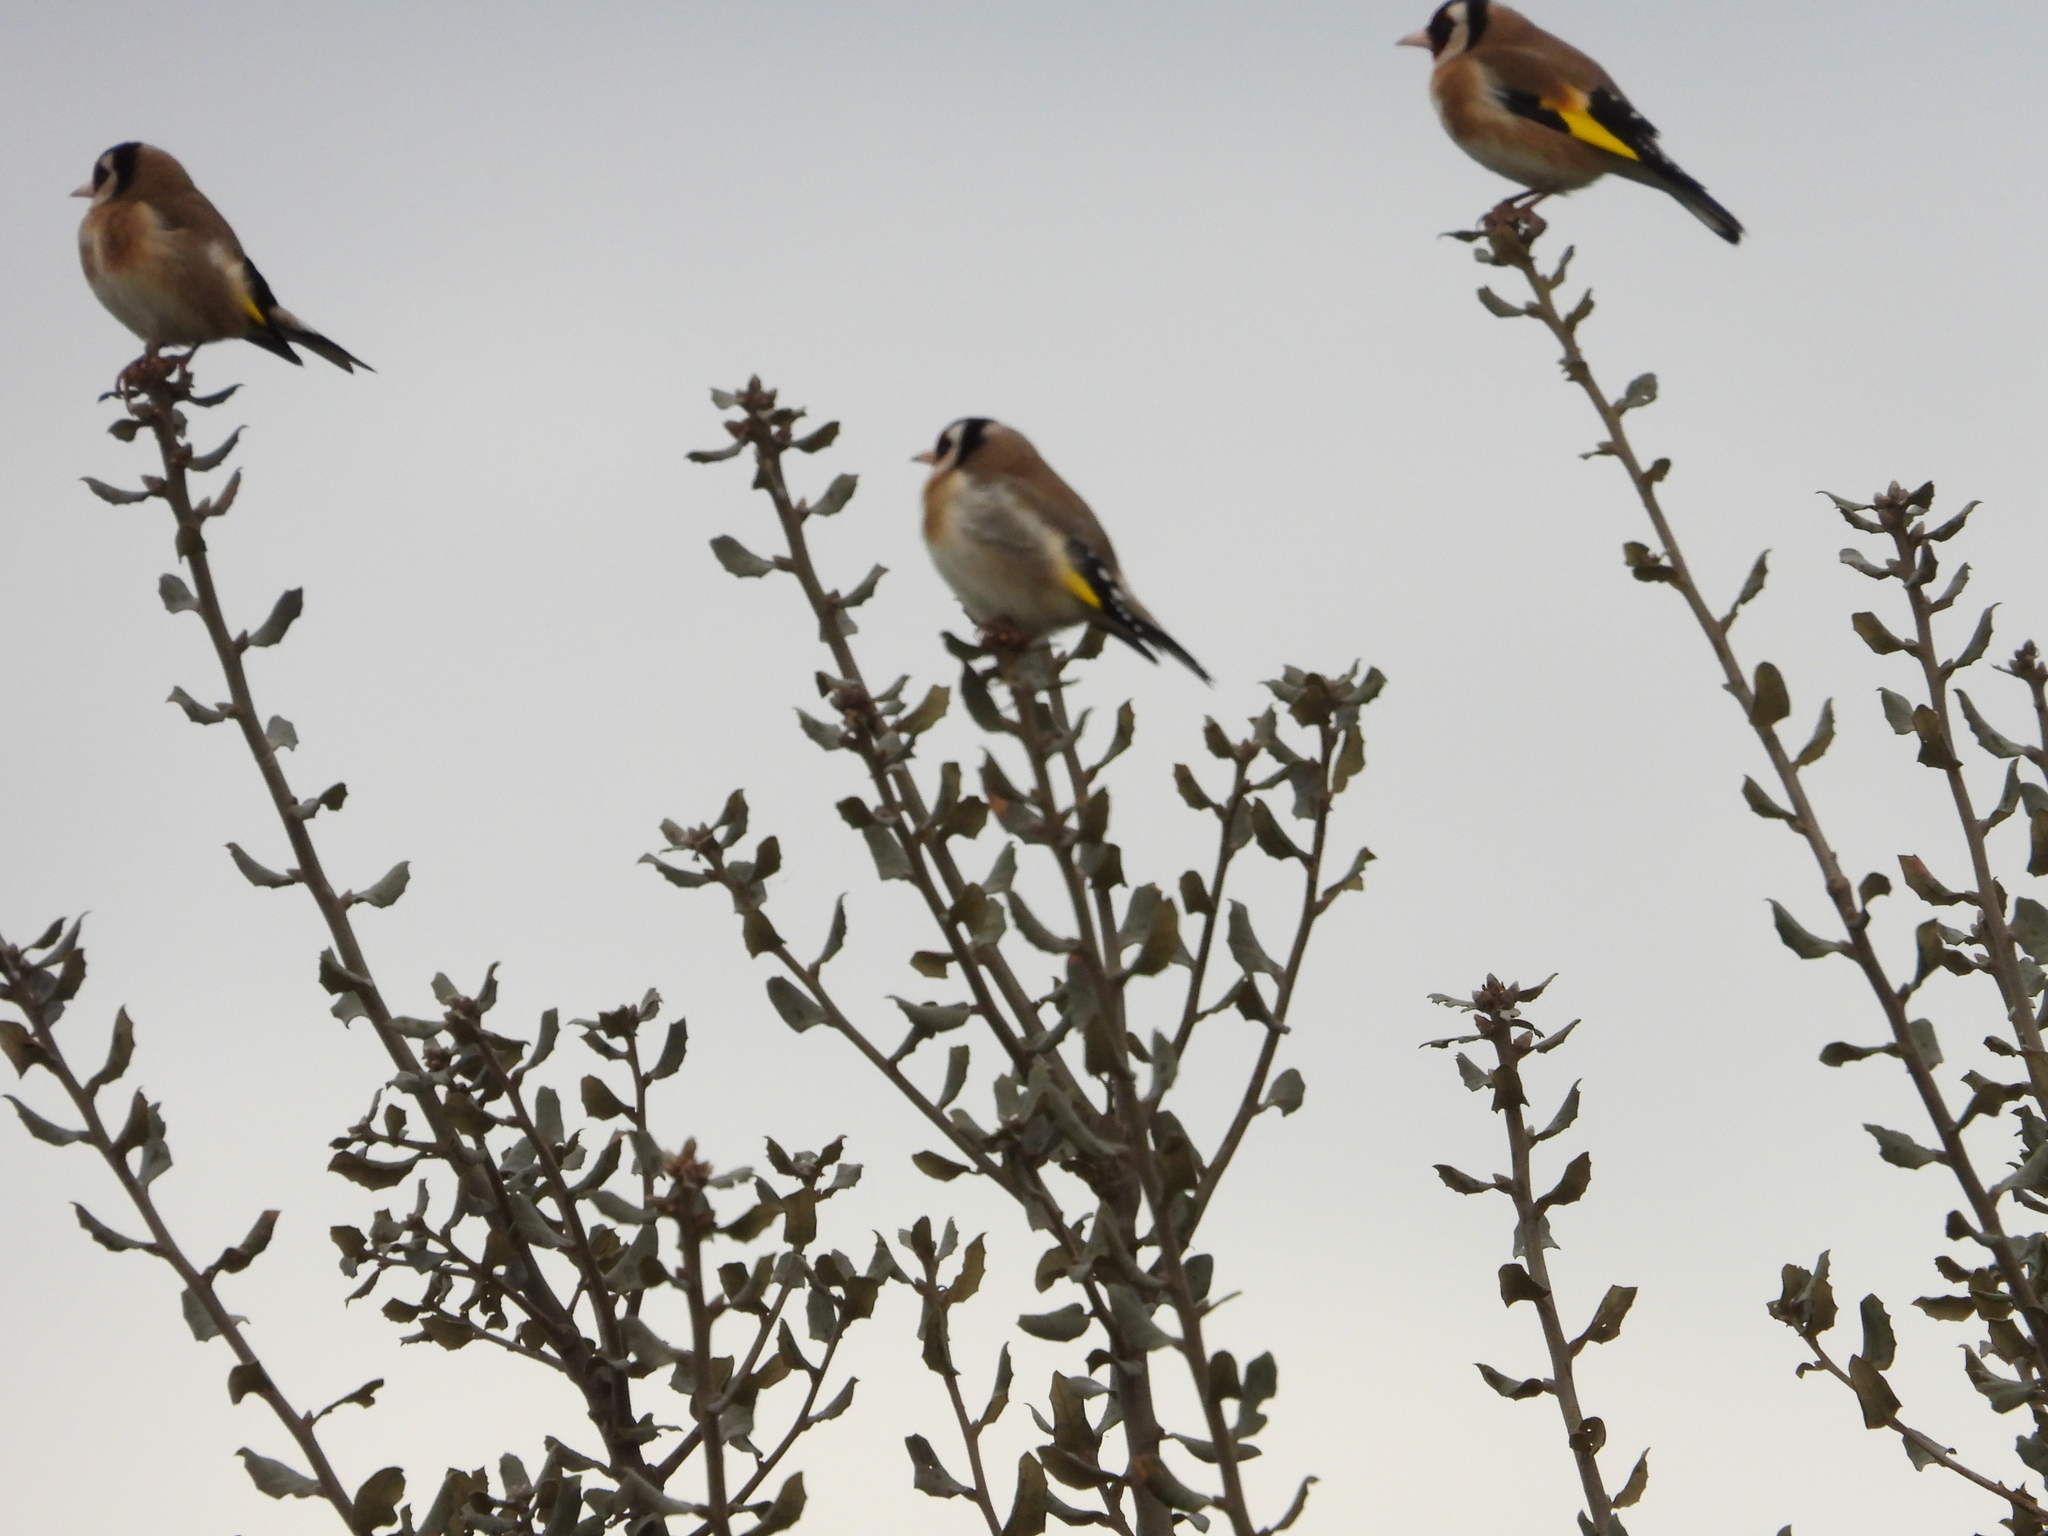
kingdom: Animalia
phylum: Chordata
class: Aves
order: Passeriformes
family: Fringillidae
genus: Carduelis
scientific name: Carduelis carduelis
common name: European goldfinch
